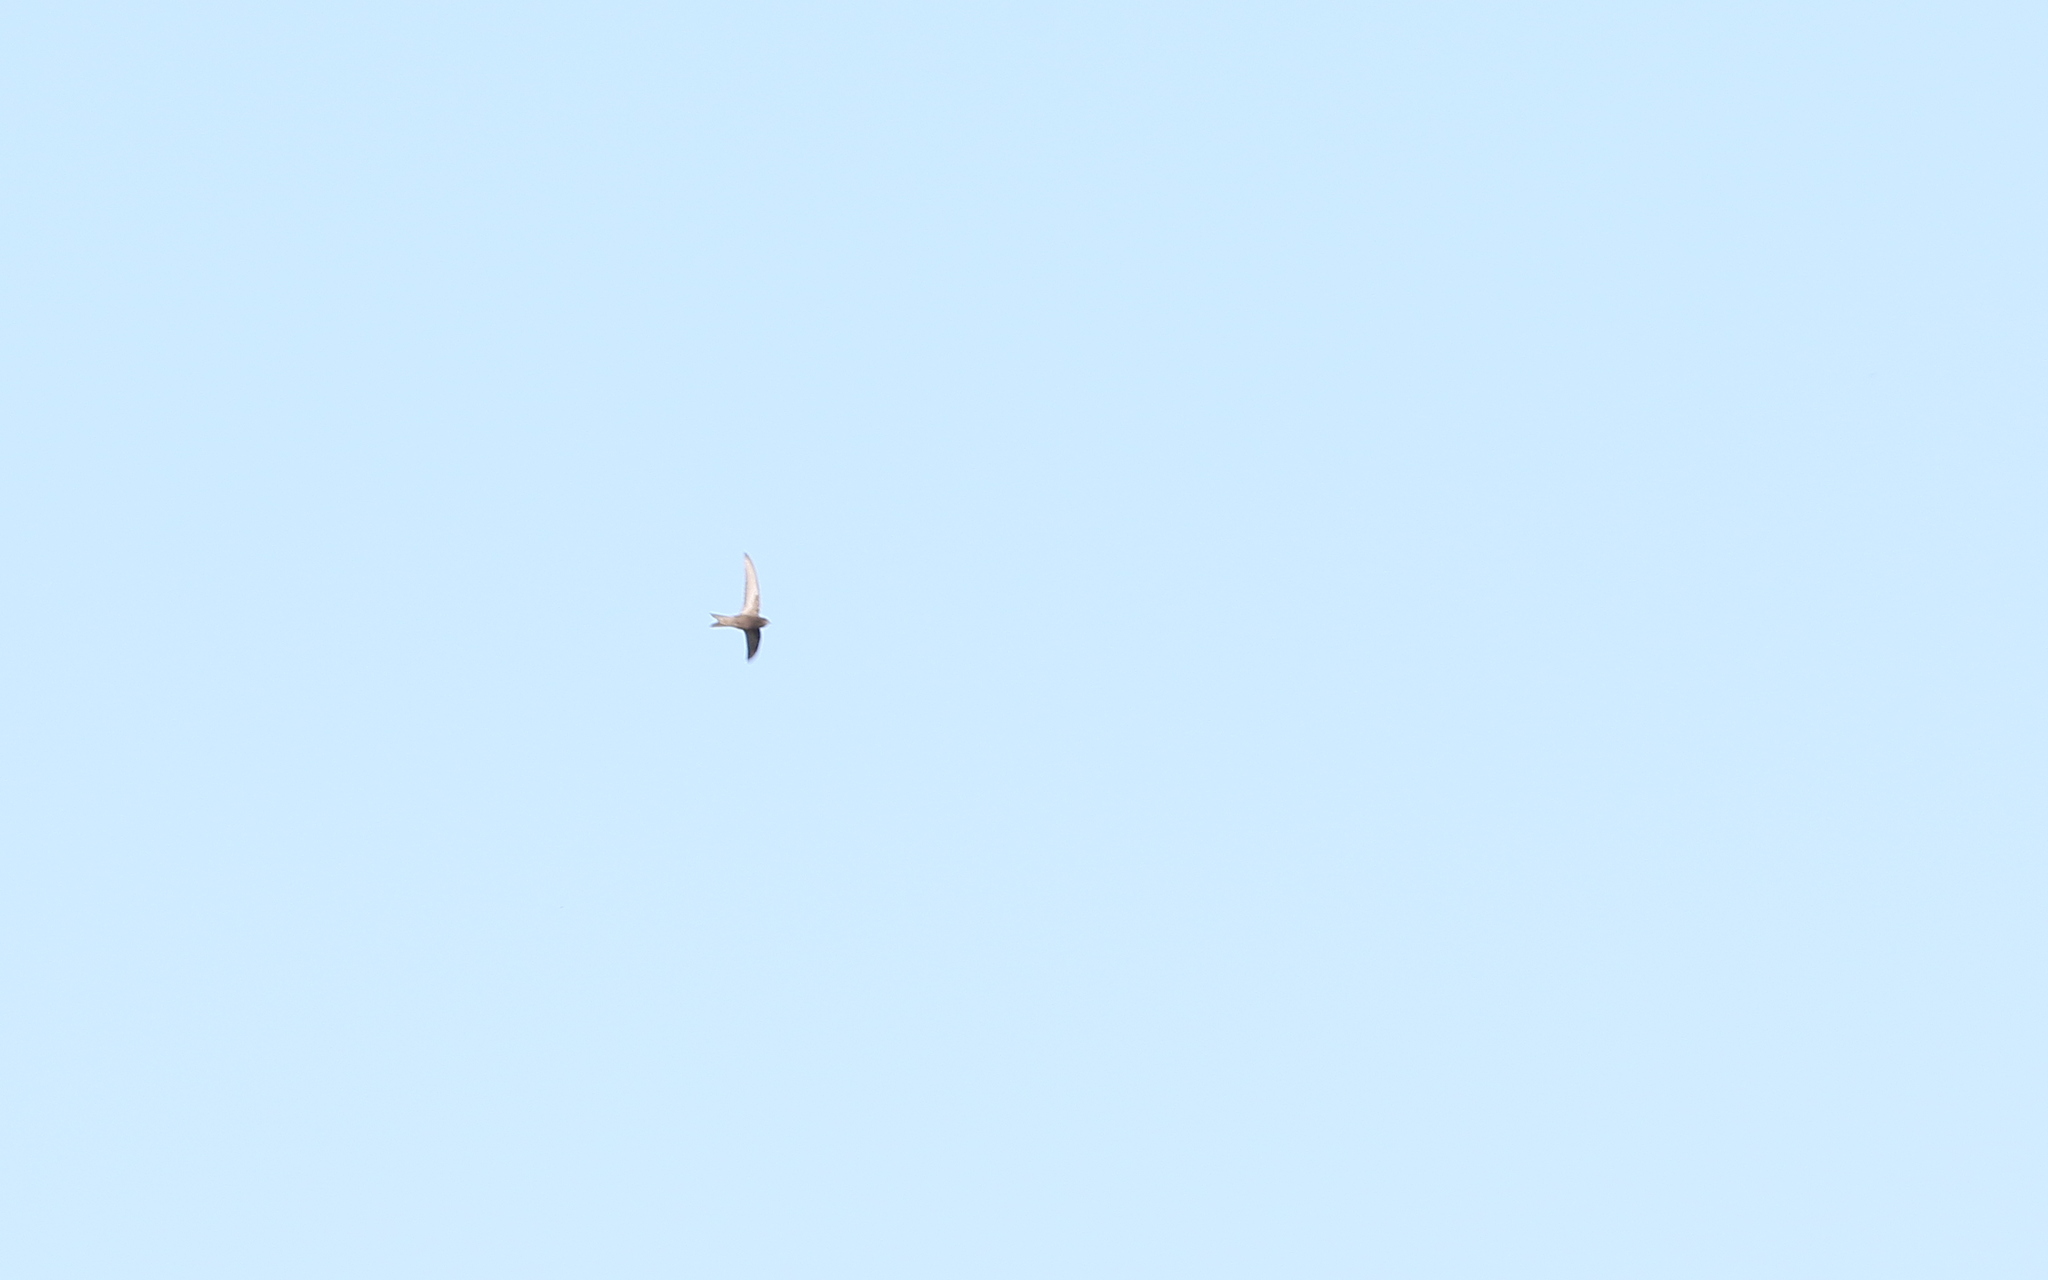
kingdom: Animalia
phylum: Chordata
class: Aves
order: Apodiformes
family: Apodidae
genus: Apus
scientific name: Apus apus
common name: Common swift
